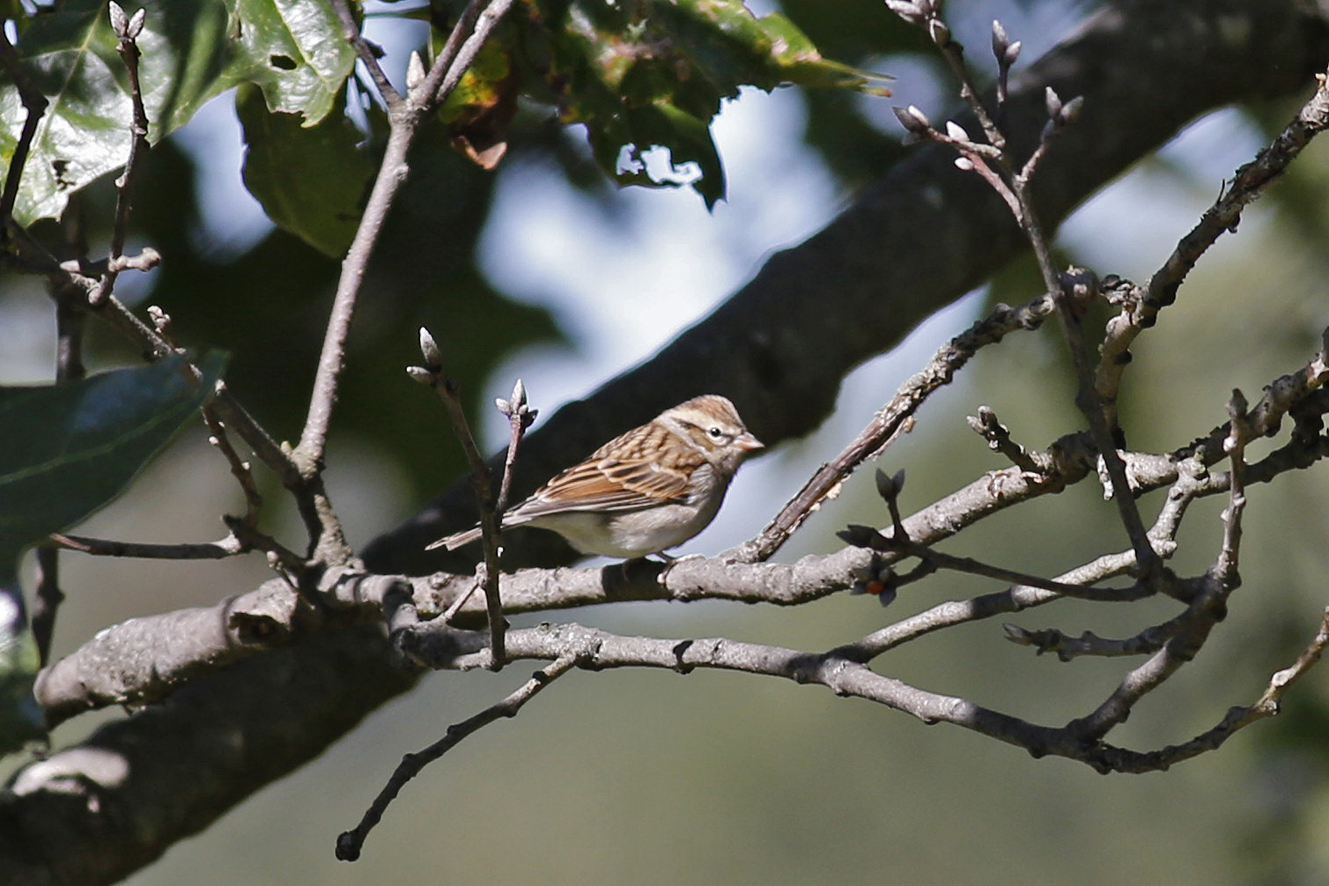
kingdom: Animalia
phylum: Chordata
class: Aves
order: Passeriformes
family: Passerellidae
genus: Spizella
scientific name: Spizella passerina
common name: Chipping sparrow
